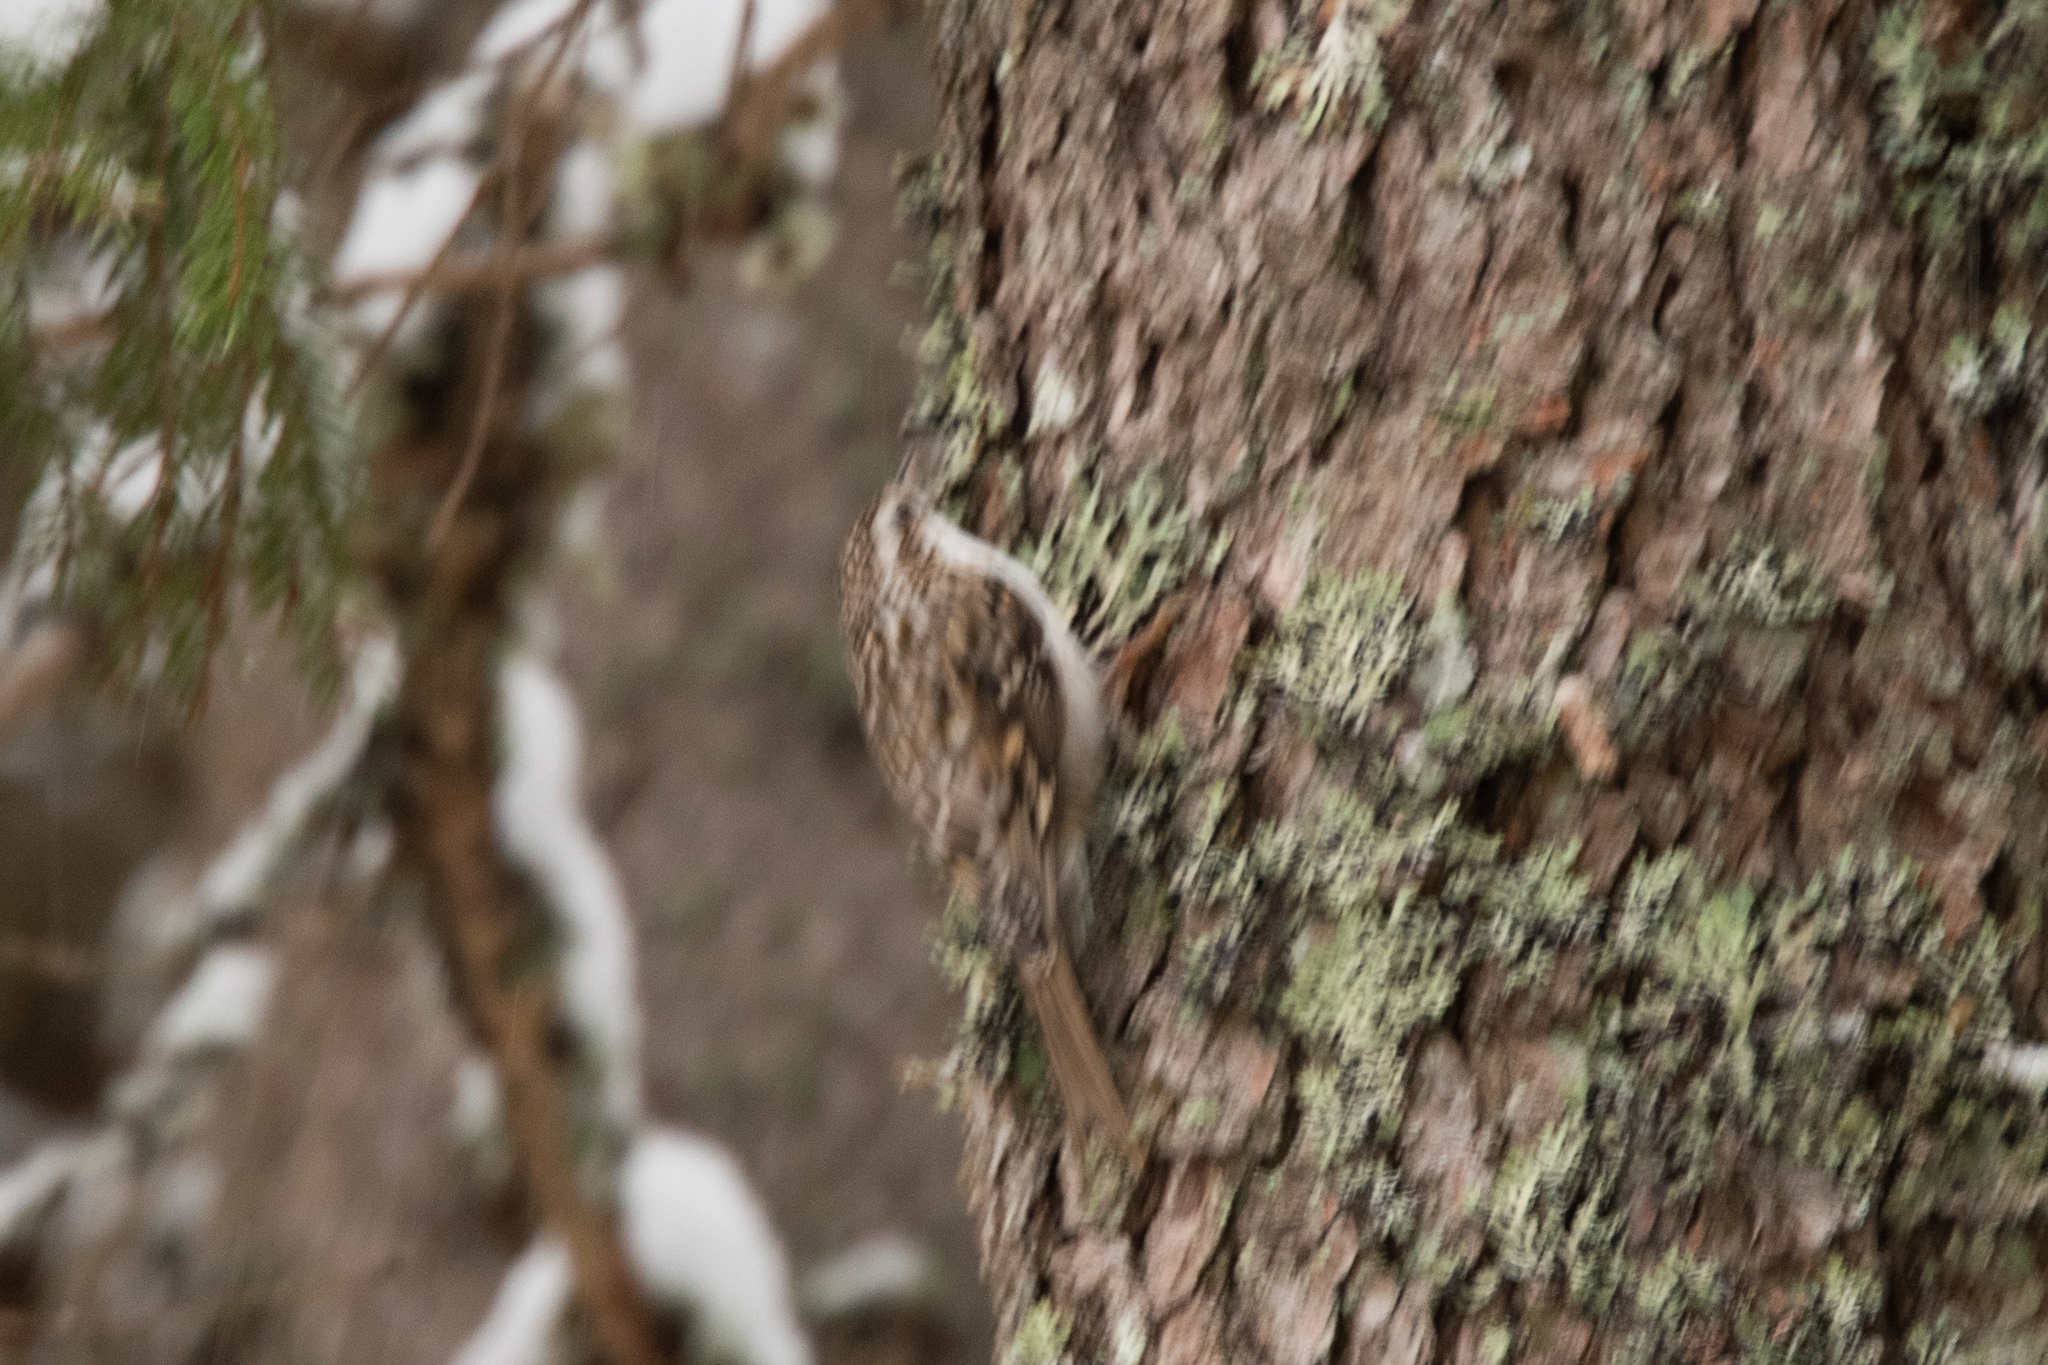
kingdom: Animalia
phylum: Chordata
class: Aves
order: Passeriformes
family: Certhiidae
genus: Certhia
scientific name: Certhia familiaris
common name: Eurasian treecreeper
